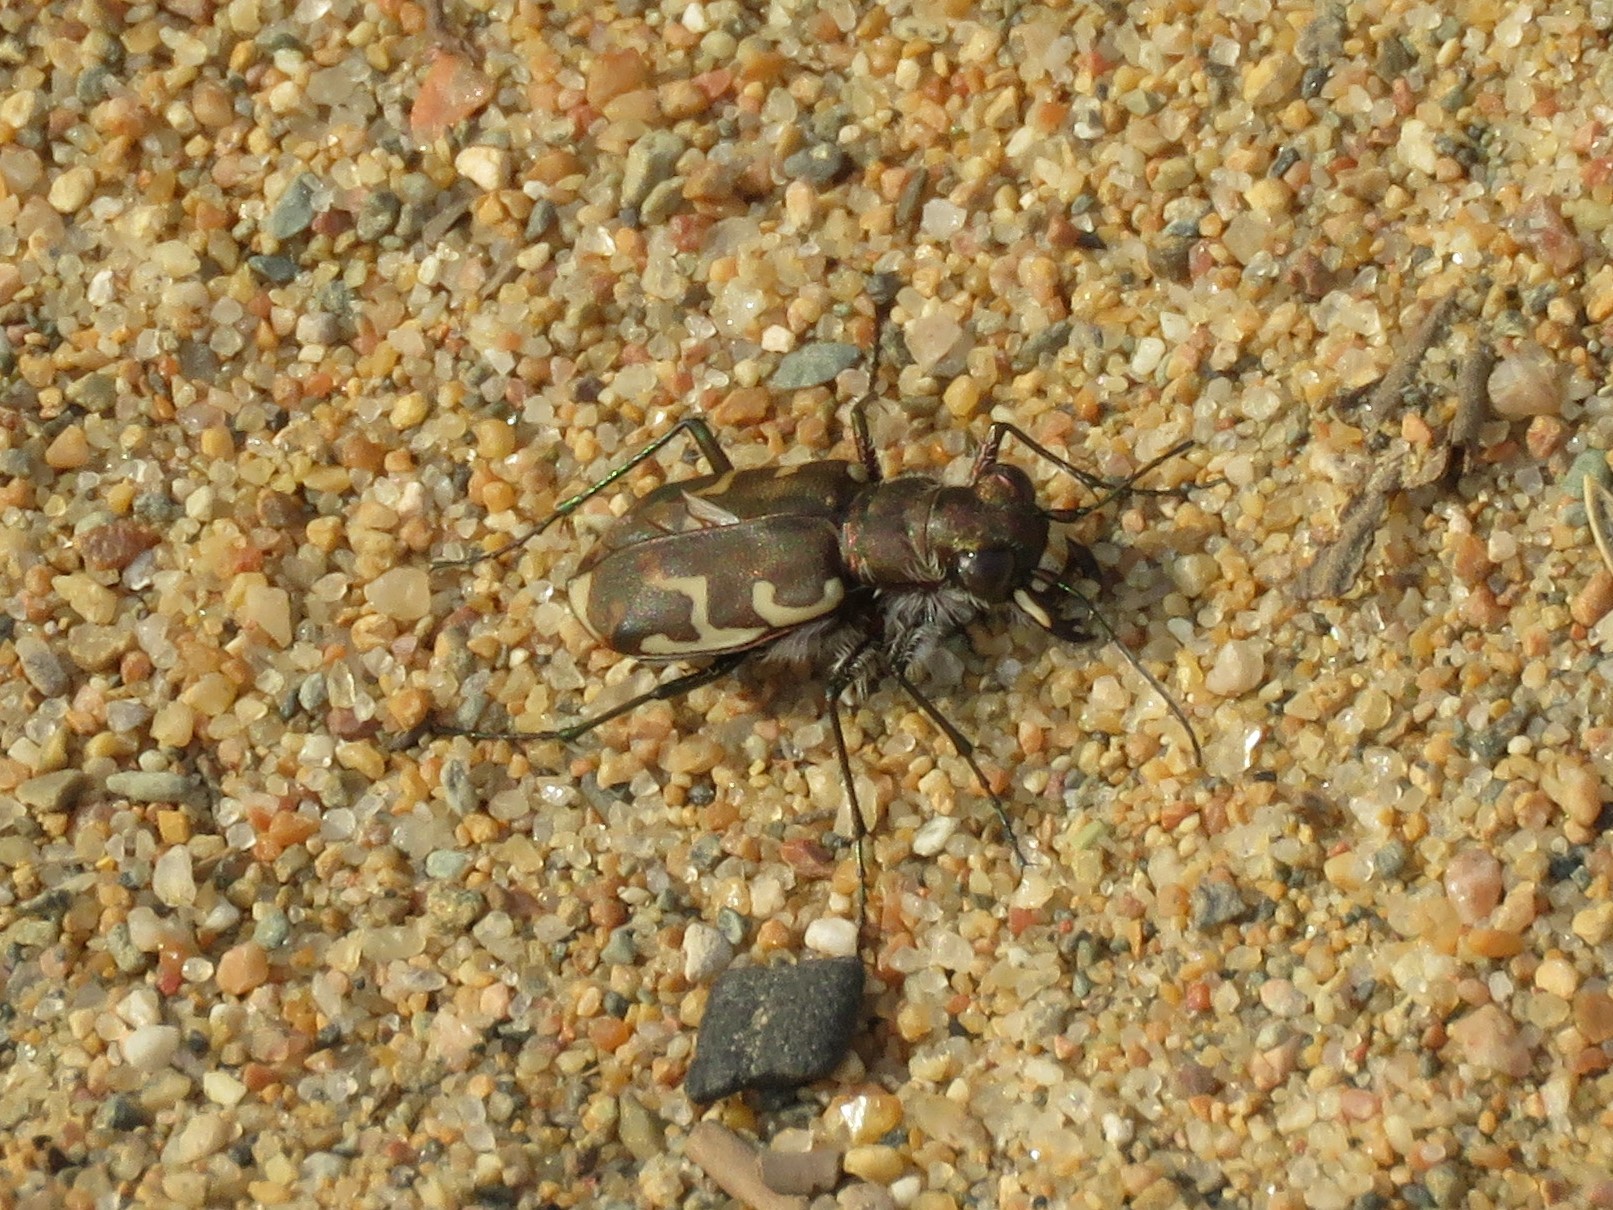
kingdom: Animalia
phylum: Arthropoda
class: Insecta
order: Coleoptera
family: Carabidae
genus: Cicindela
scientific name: Cicindela repanda
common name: Bronzed tiger beetle
